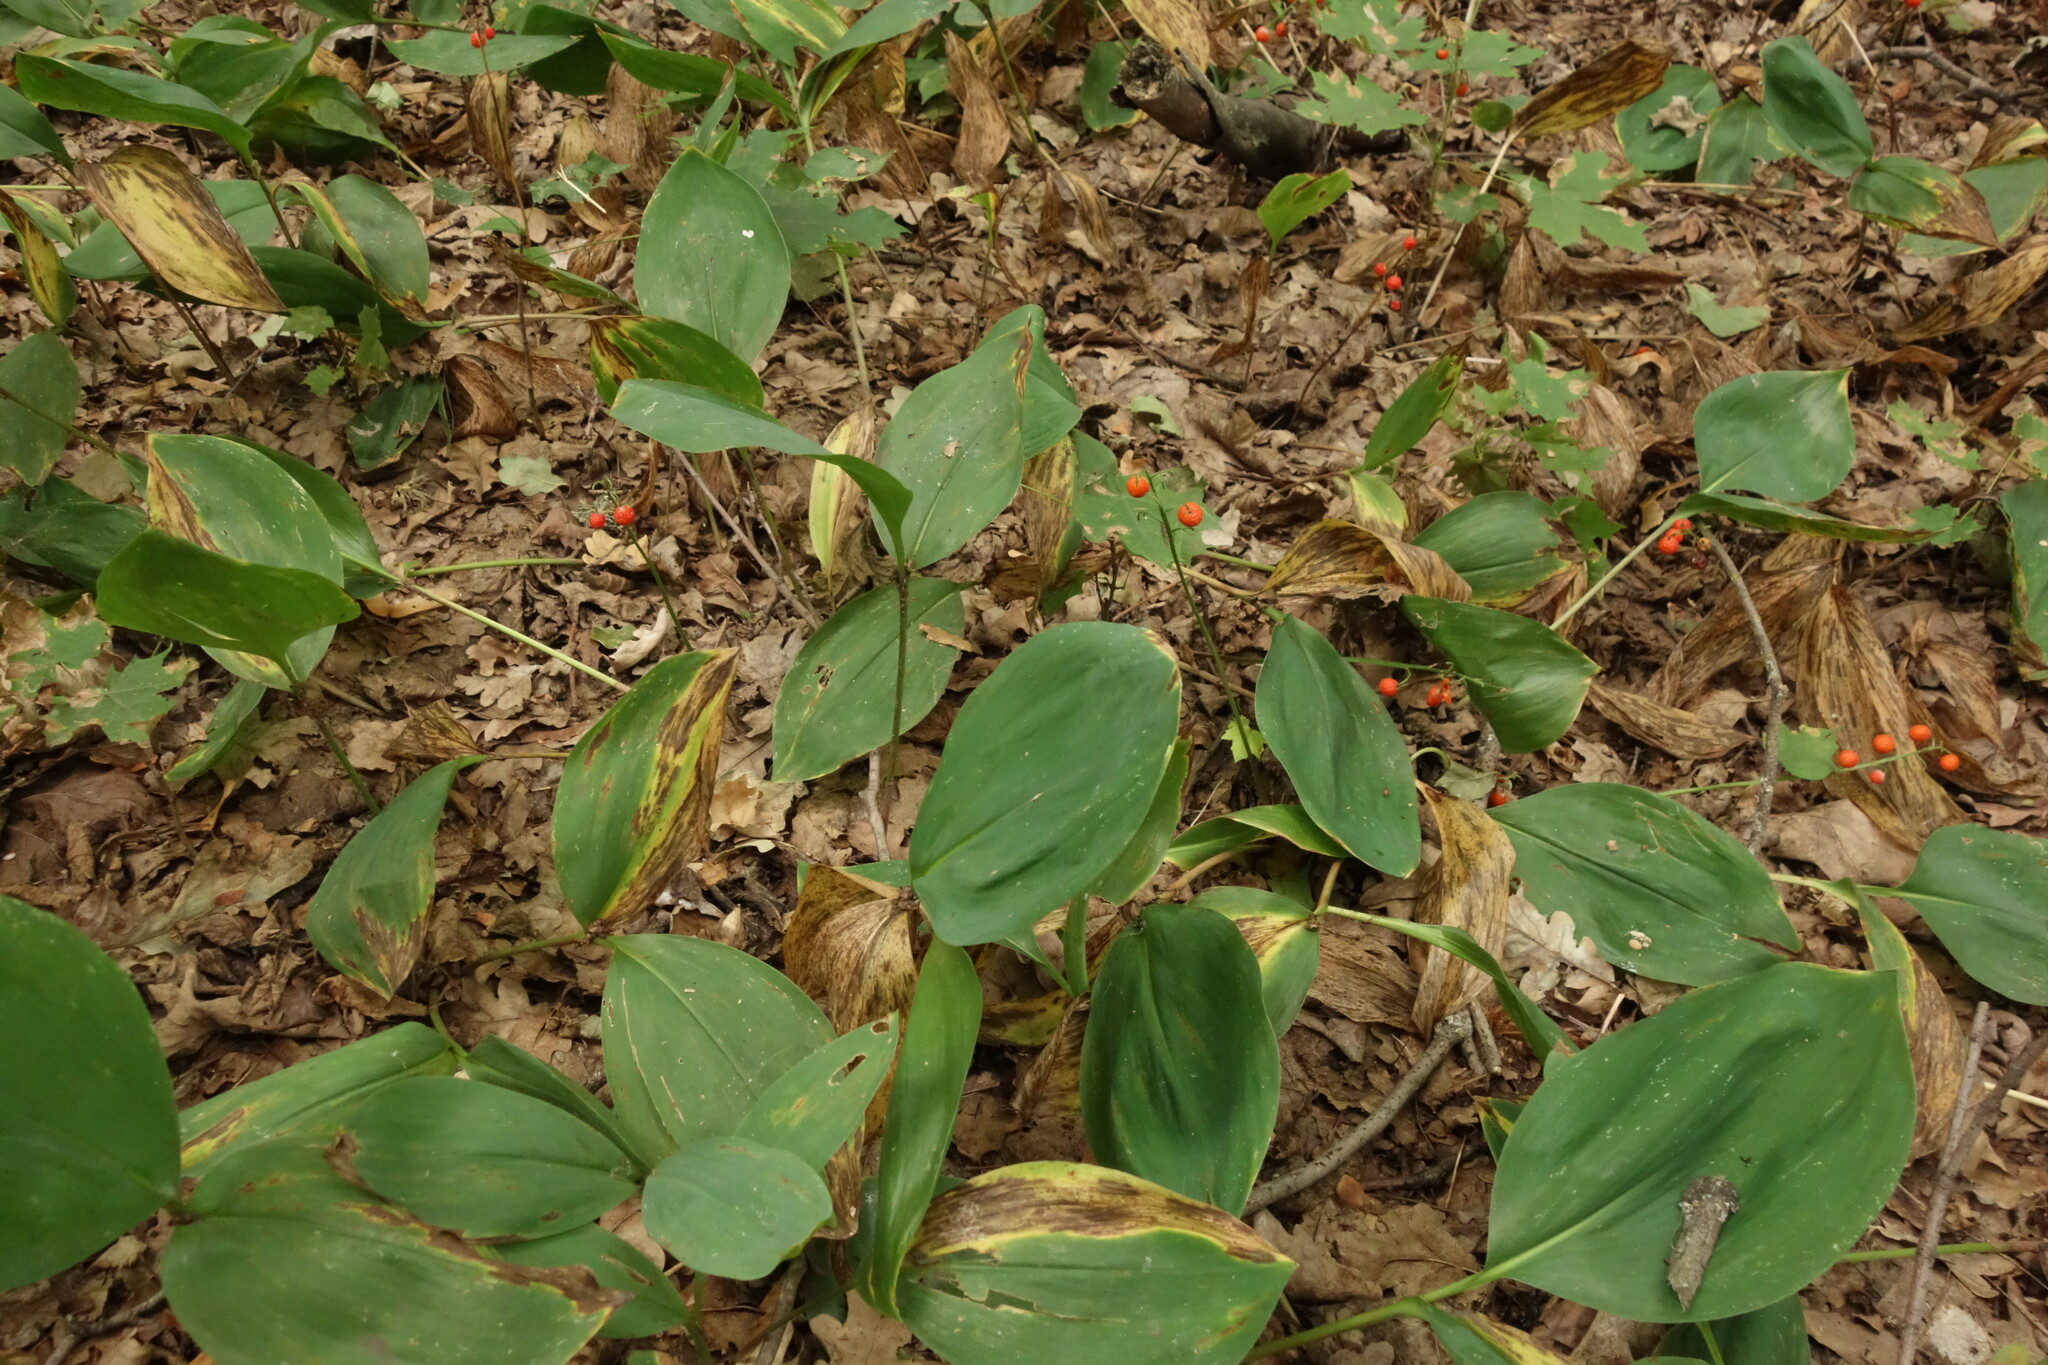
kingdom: Plantae
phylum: Tracheophyta
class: Liliopsida
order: Asparagales
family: Asparagaceae
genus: Convallaria
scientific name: Convallaria majalis
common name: Lily-of-the-valley
